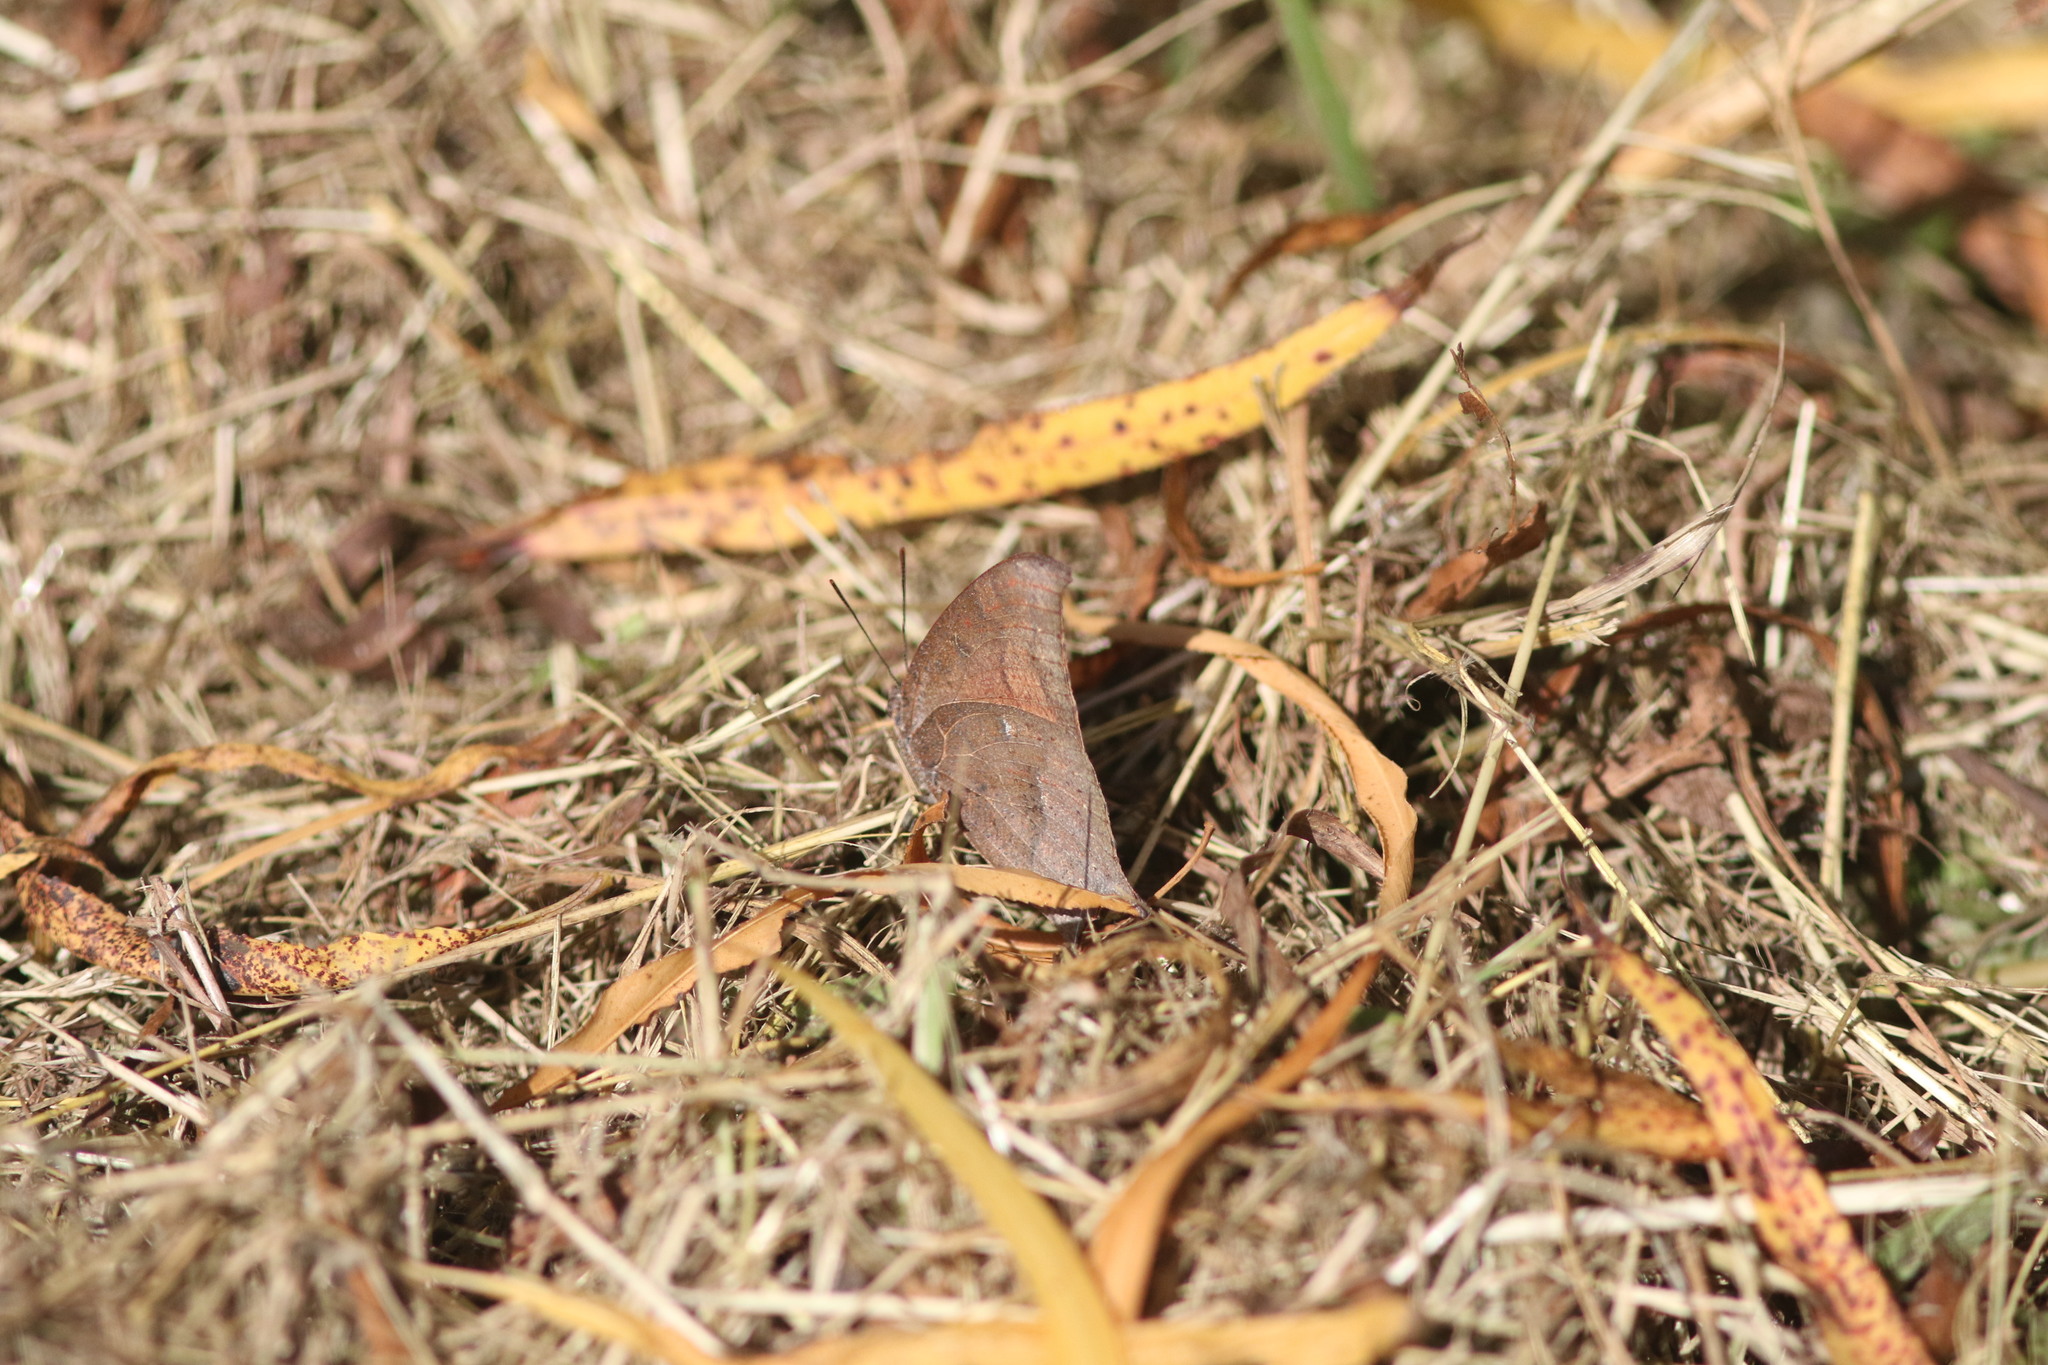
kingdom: Animalia
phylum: Arthropoda
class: Insecta
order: Lepidoptera
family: Nymphalidae
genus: Anaea
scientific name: Anaea andria
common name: Goatweed leafwing
